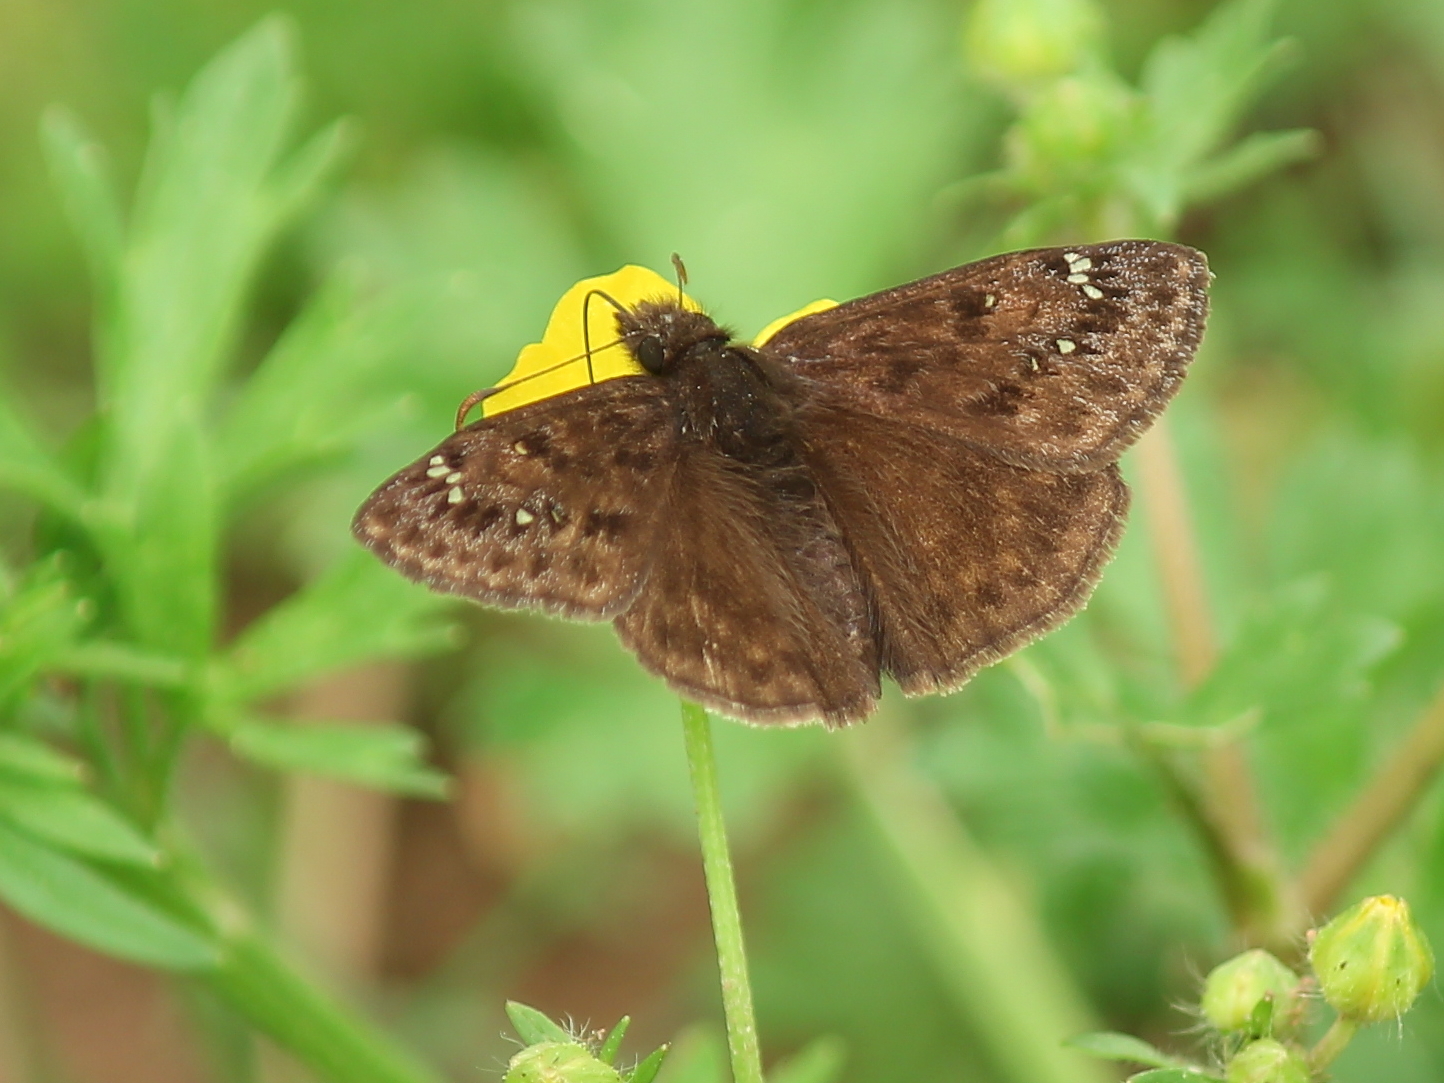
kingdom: Animalia
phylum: Arthropoda
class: Insecta
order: Lepidoptera
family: Hesperiidae
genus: Erynnis
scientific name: Erynnis horatius
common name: Horace's duskywing
